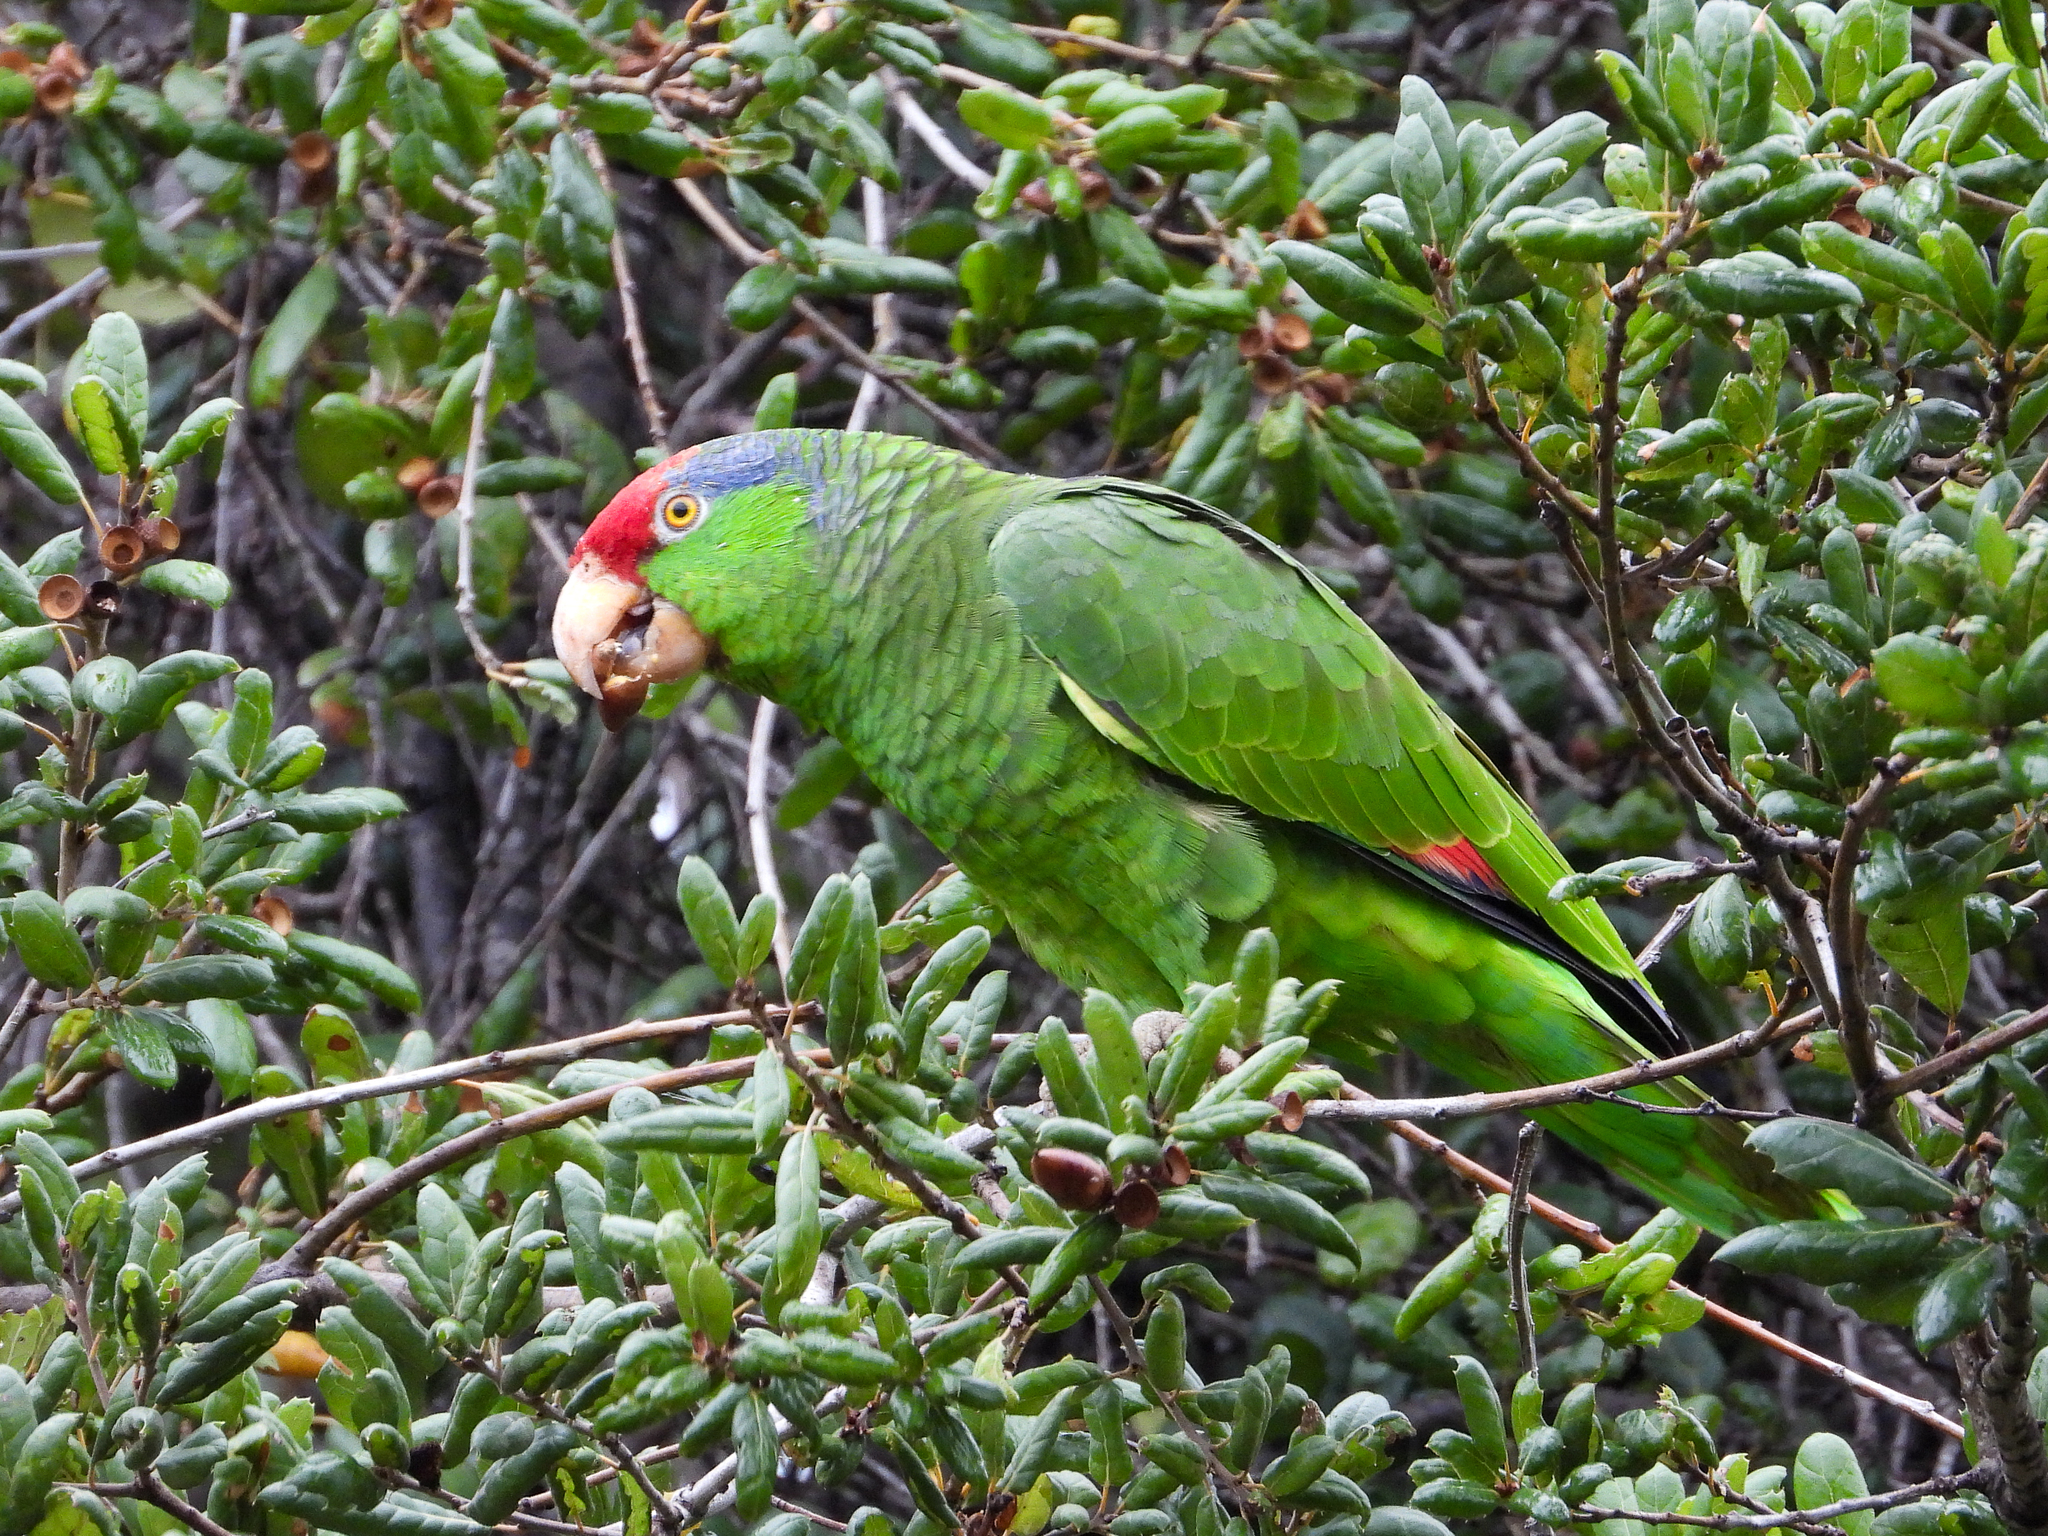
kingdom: Animalia
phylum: Chordata
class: Aves
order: Psittaciformes
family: Psittacidae
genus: Amazona
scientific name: Amazona viridigenalis
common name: Red-crowned amazon
